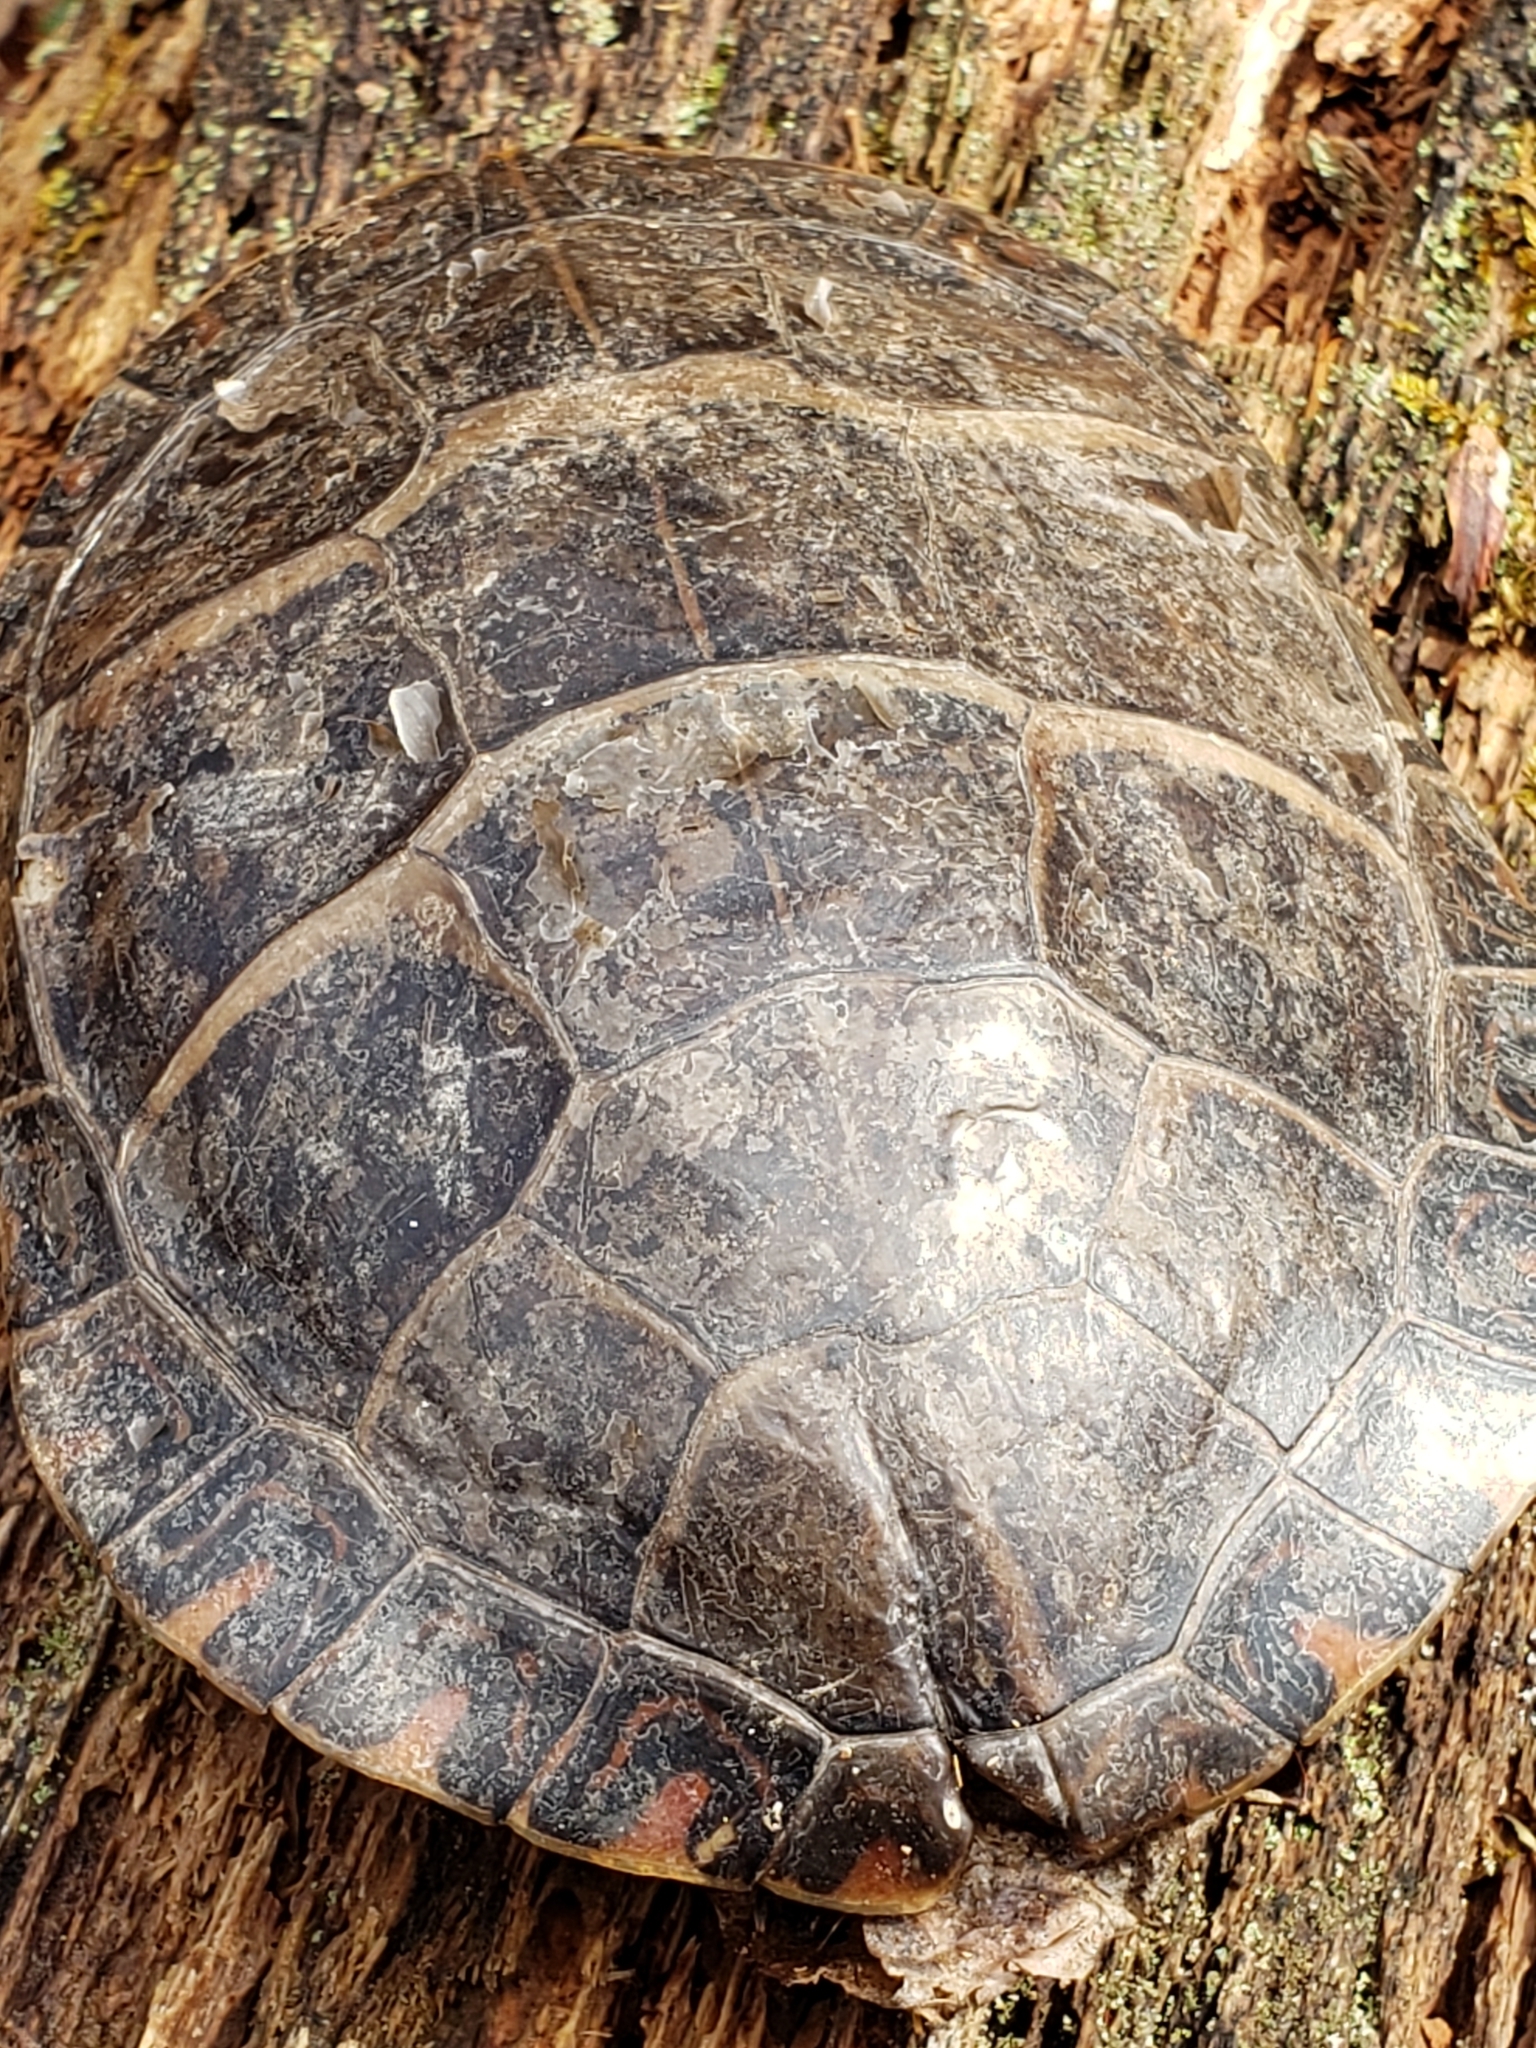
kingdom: Animalia
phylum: Chordata
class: Testudines
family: Emydidae
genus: Chrysemys
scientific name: Chrysemys picta
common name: Painted turtle
